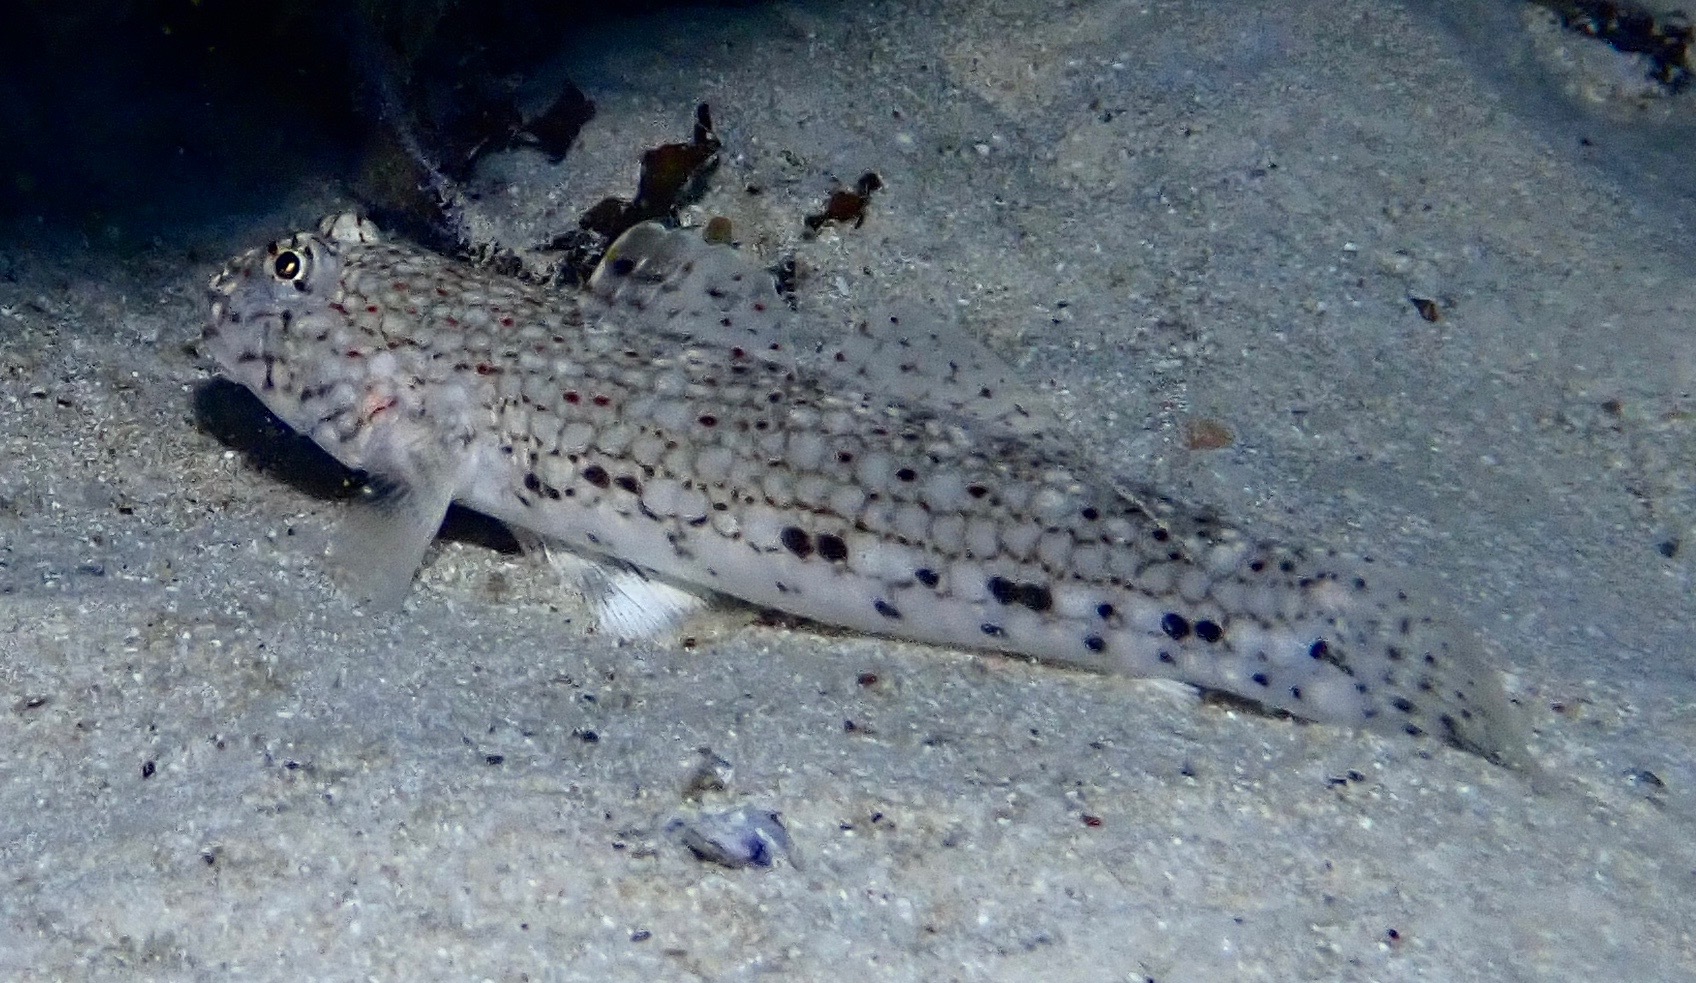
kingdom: Animalia
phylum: Chordata
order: Perciformes
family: Gobiidae
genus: Istigobius
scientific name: Istigobius decoratus
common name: Decorated goby
